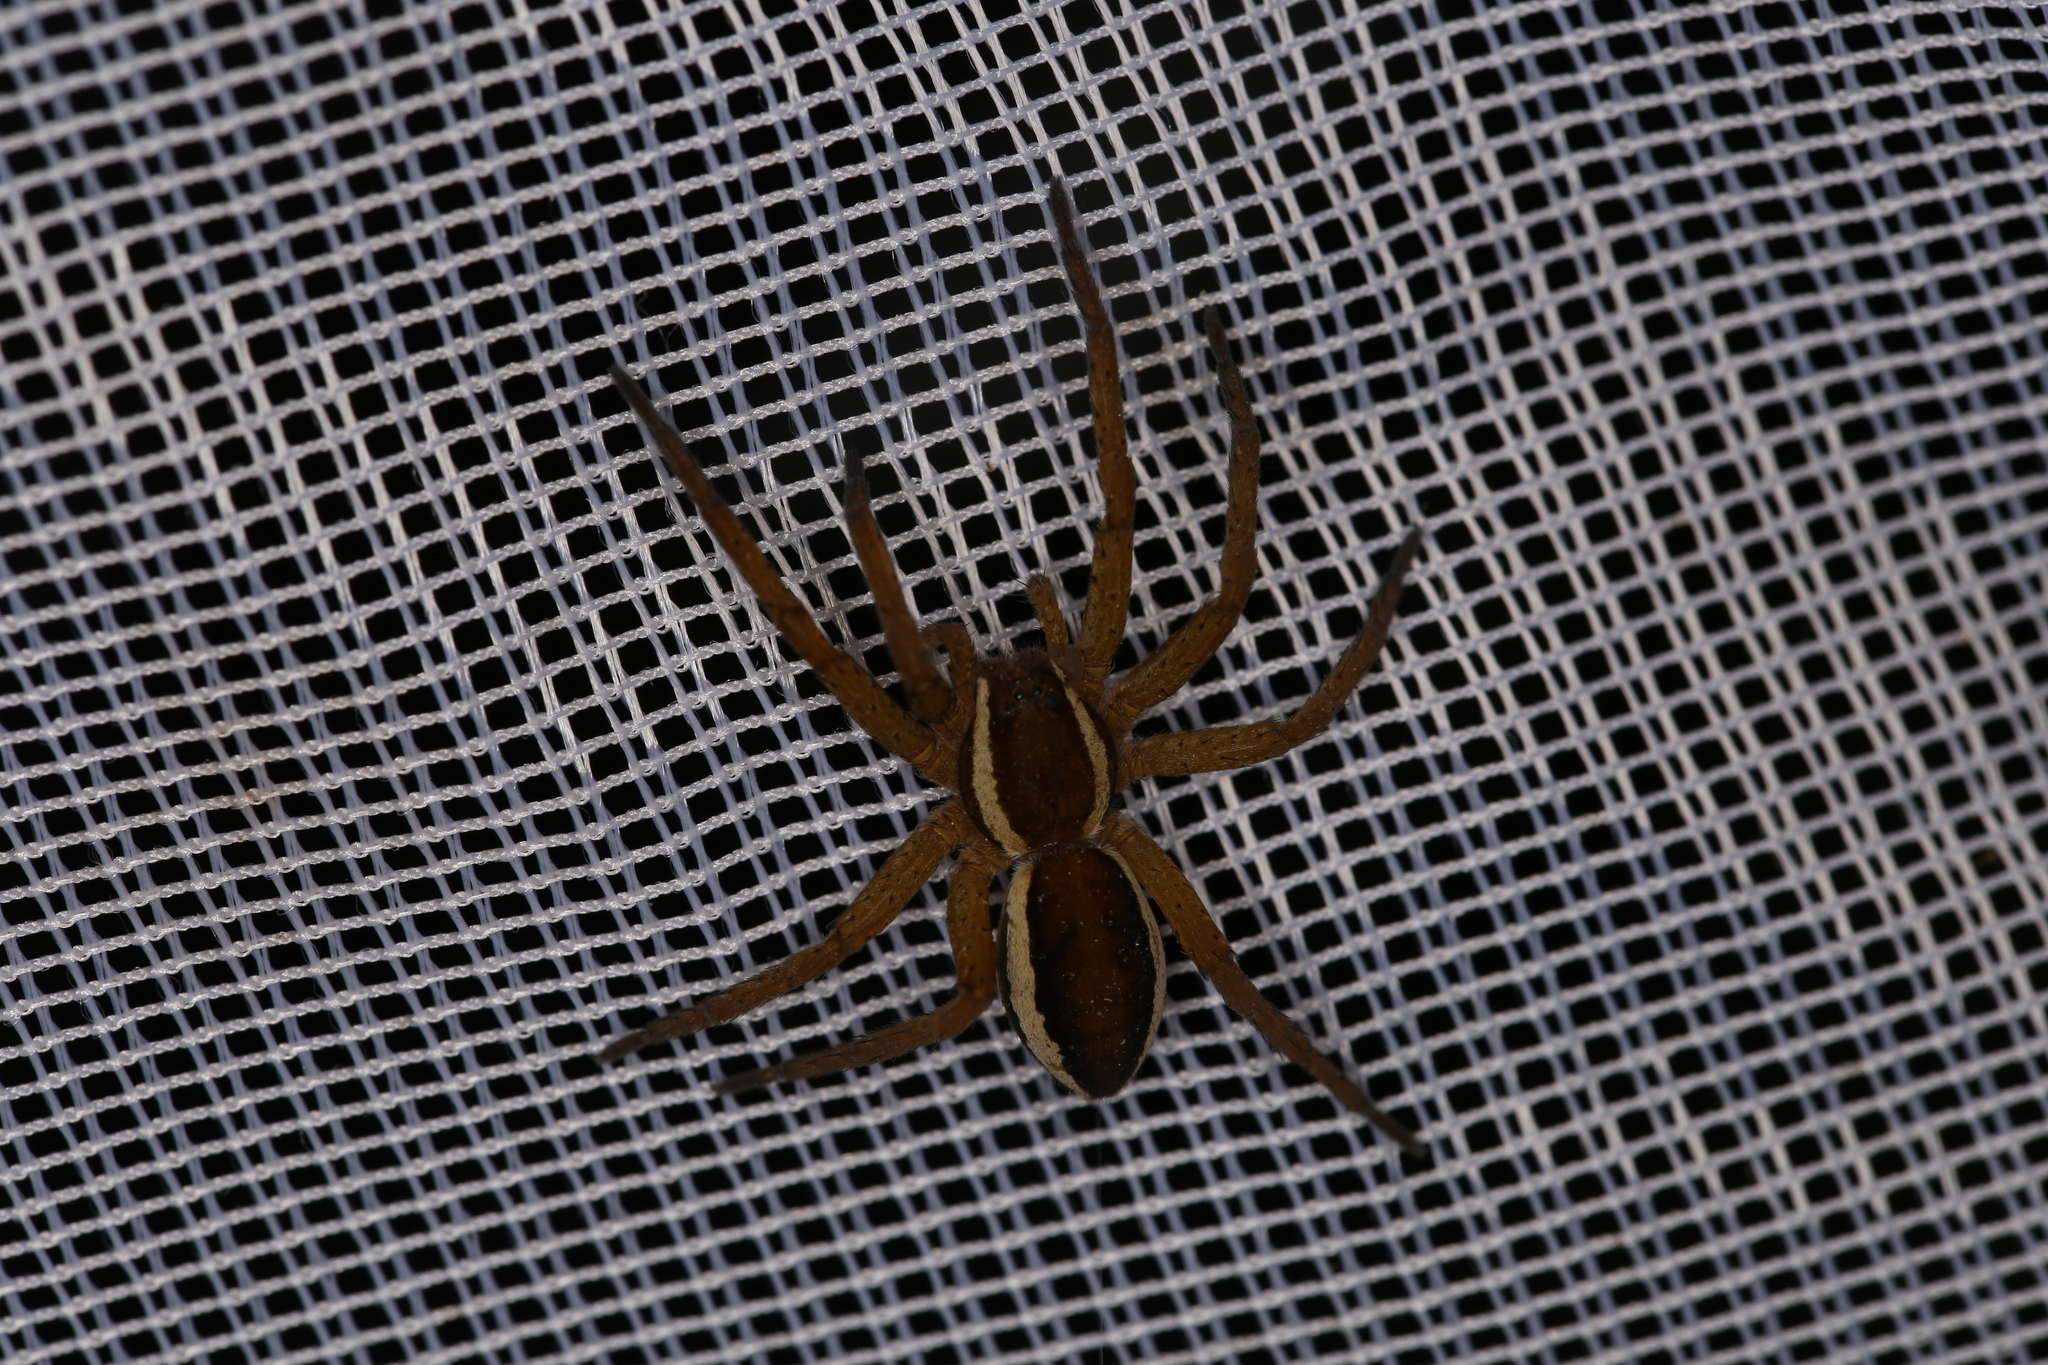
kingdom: Animalia
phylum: Arthropoda
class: Arachnida
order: Araneae
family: Pisauridae
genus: Dolomedes
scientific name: Dolomedes
